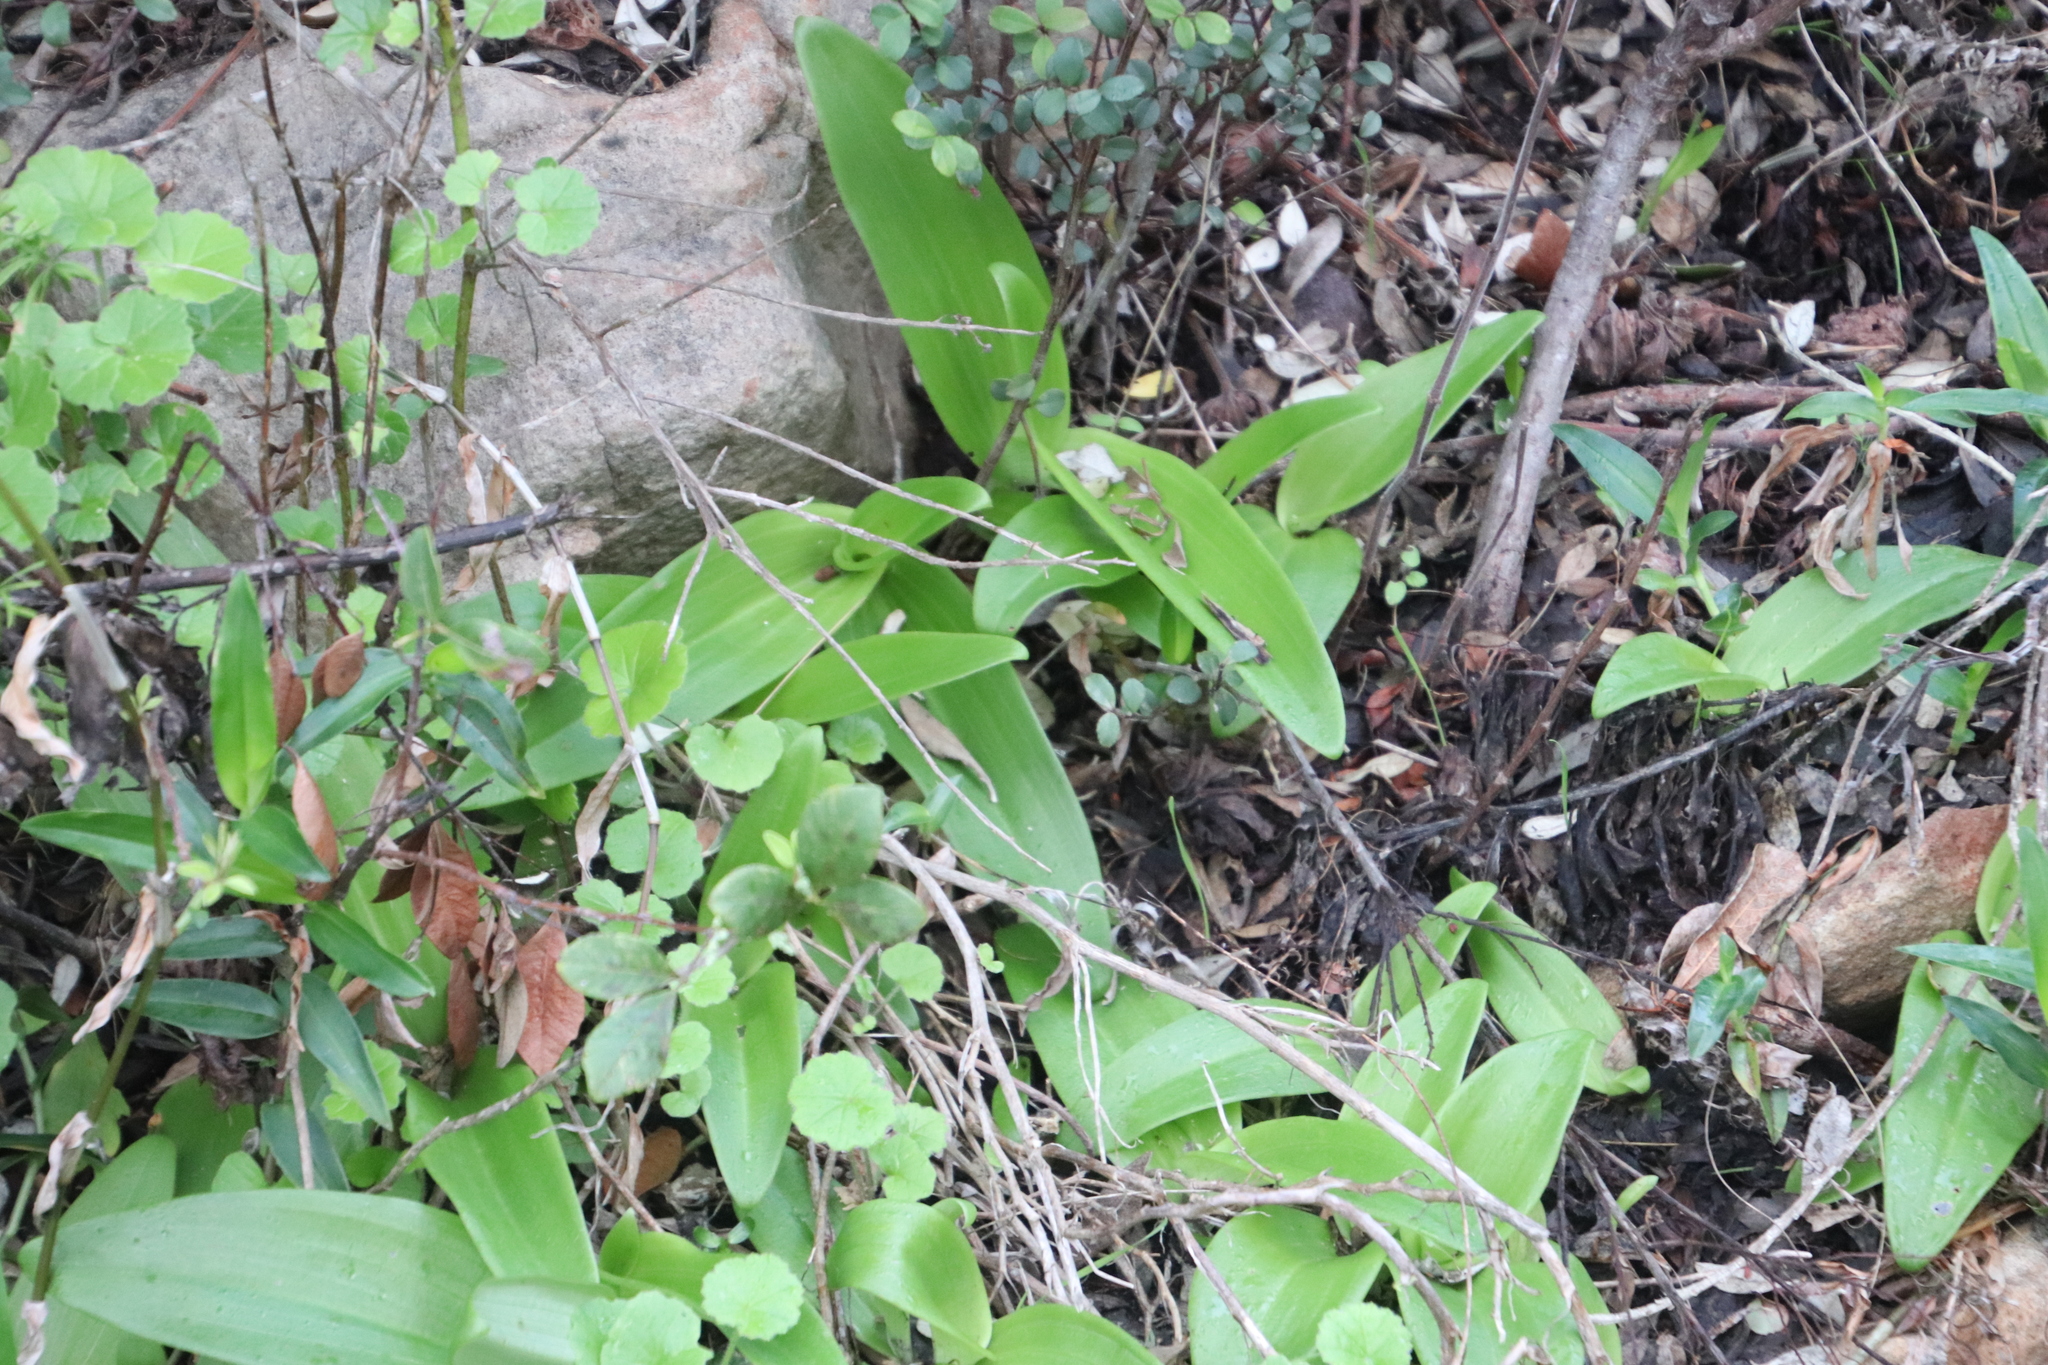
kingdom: Plantae
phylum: Tracheophyta
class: Liliopsida
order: Asparagales
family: Orchidaceae
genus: Satyrium
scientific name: Satyrium odorum
